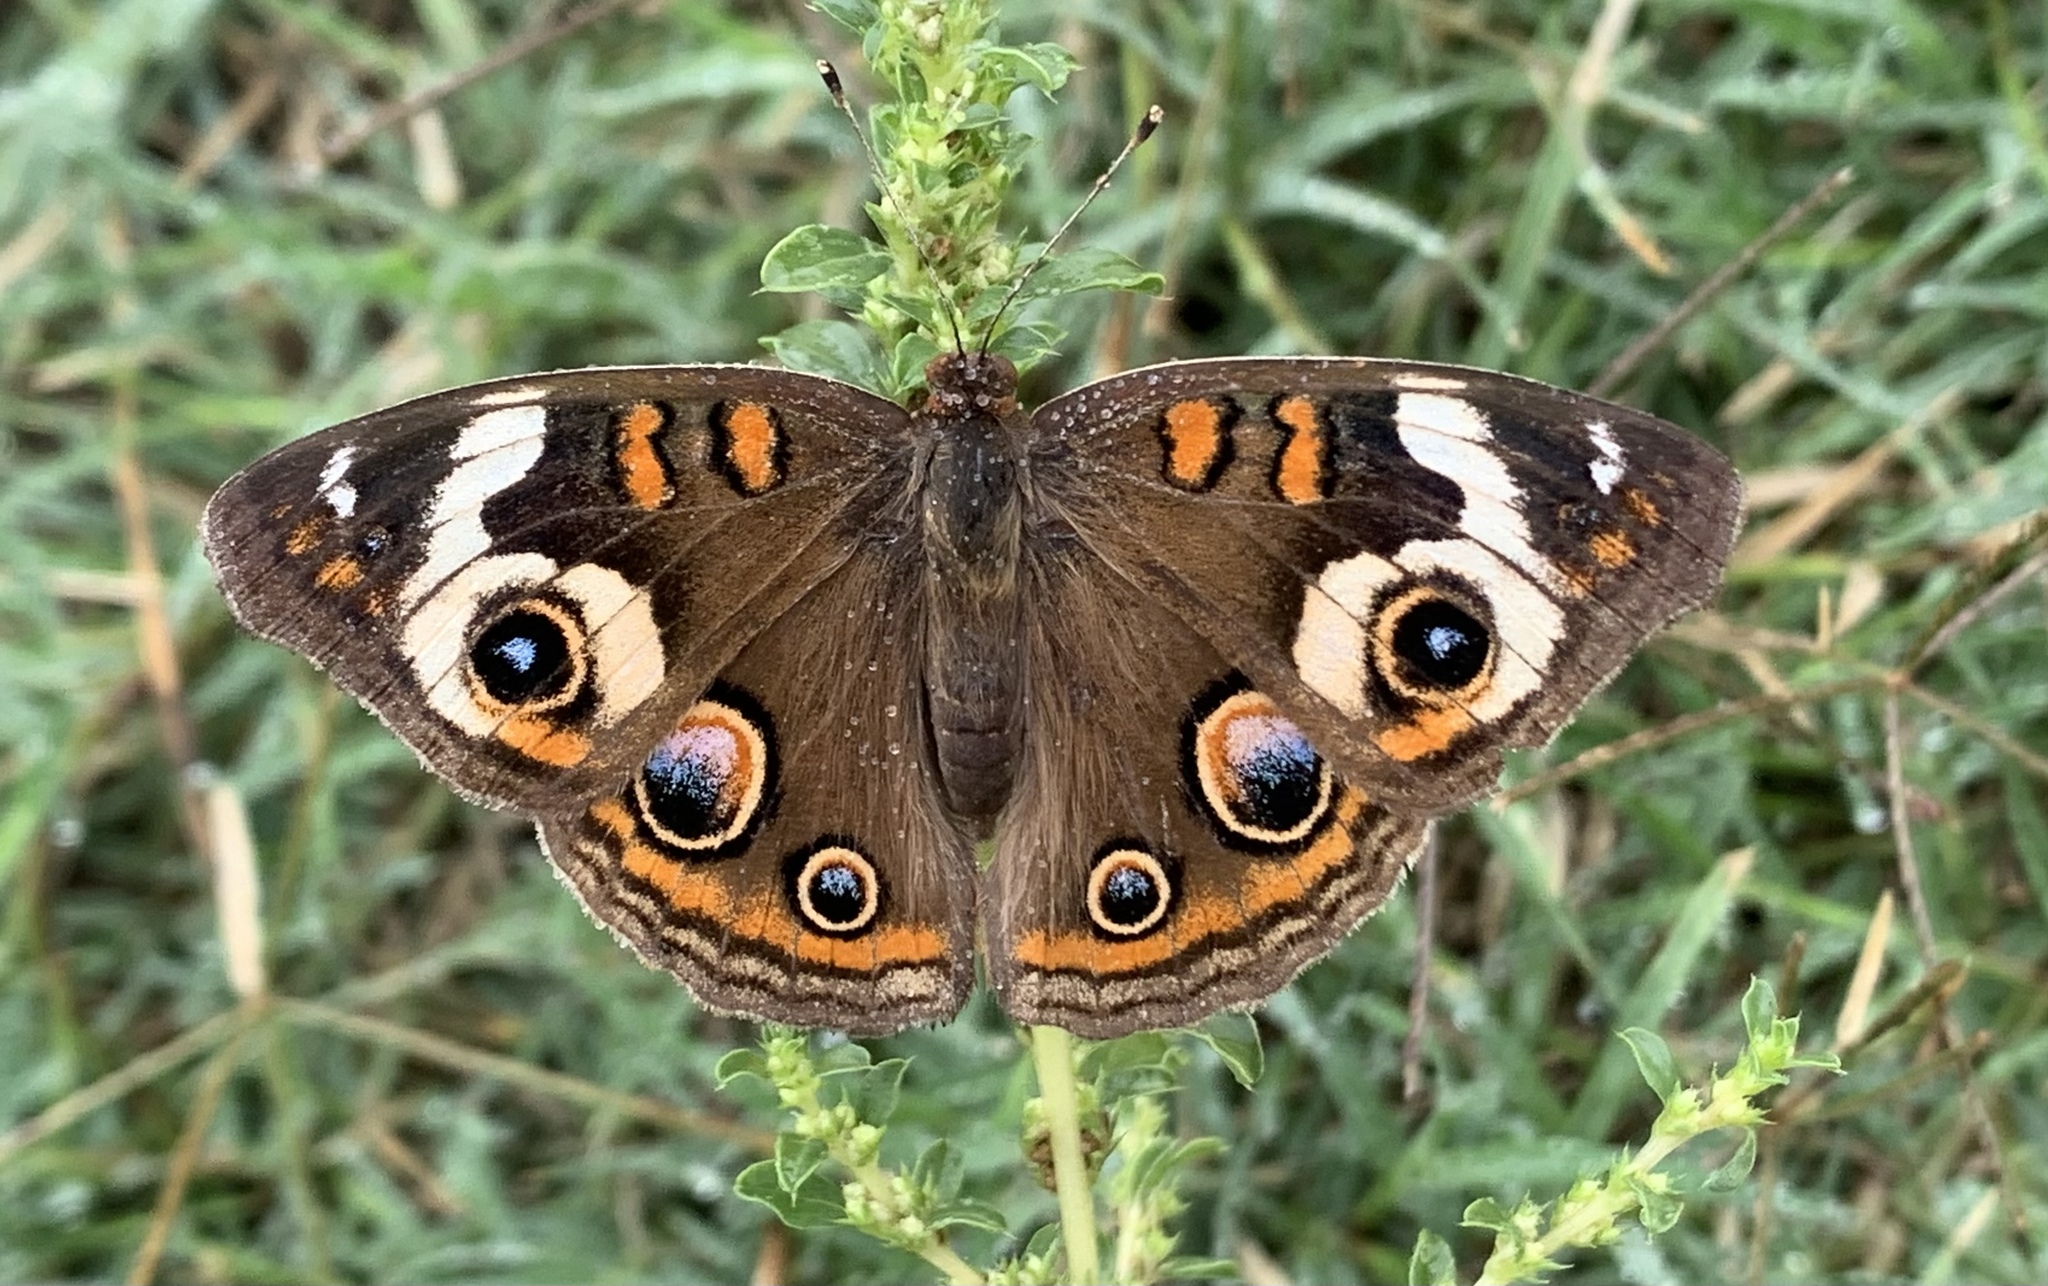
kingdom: Animalia
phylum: Arthropoda
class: Insecta
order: Lepidoptera
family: Nymphalidae
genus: Junonia
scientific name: Junonia coenia
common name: Common buckeye
